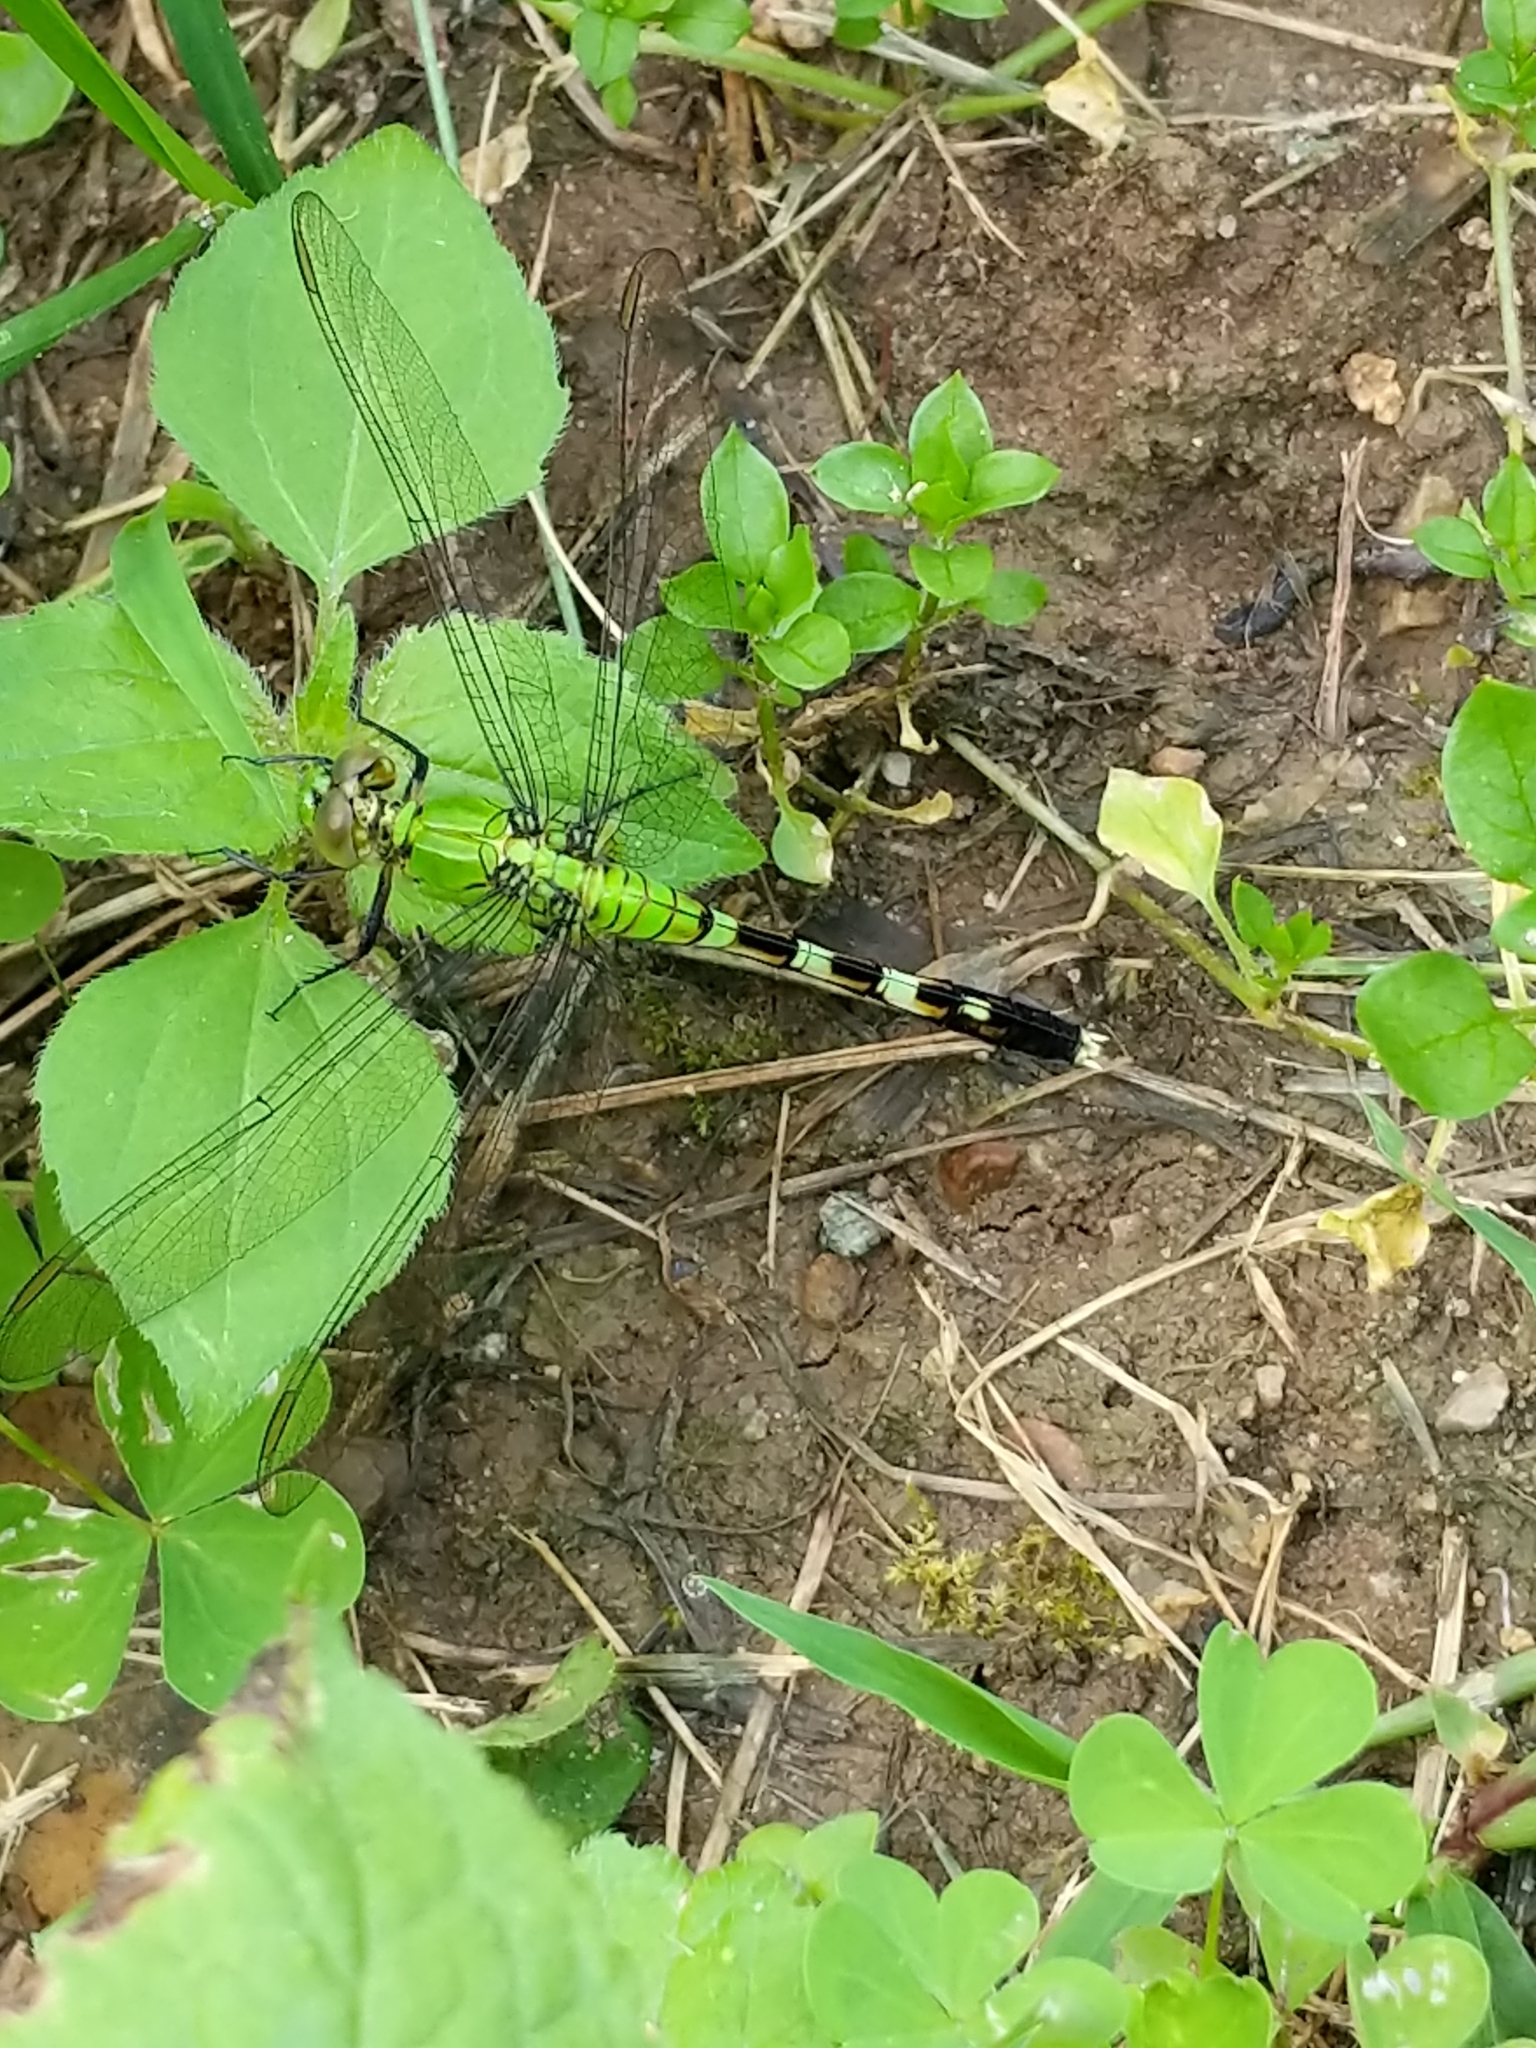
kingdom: Animalia
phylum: Arthropoda
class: Insecta
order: Odonata
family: Libellulidae
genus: Erythemis
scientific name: Erythemis simplicicollis
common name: Eastern pondhawk
